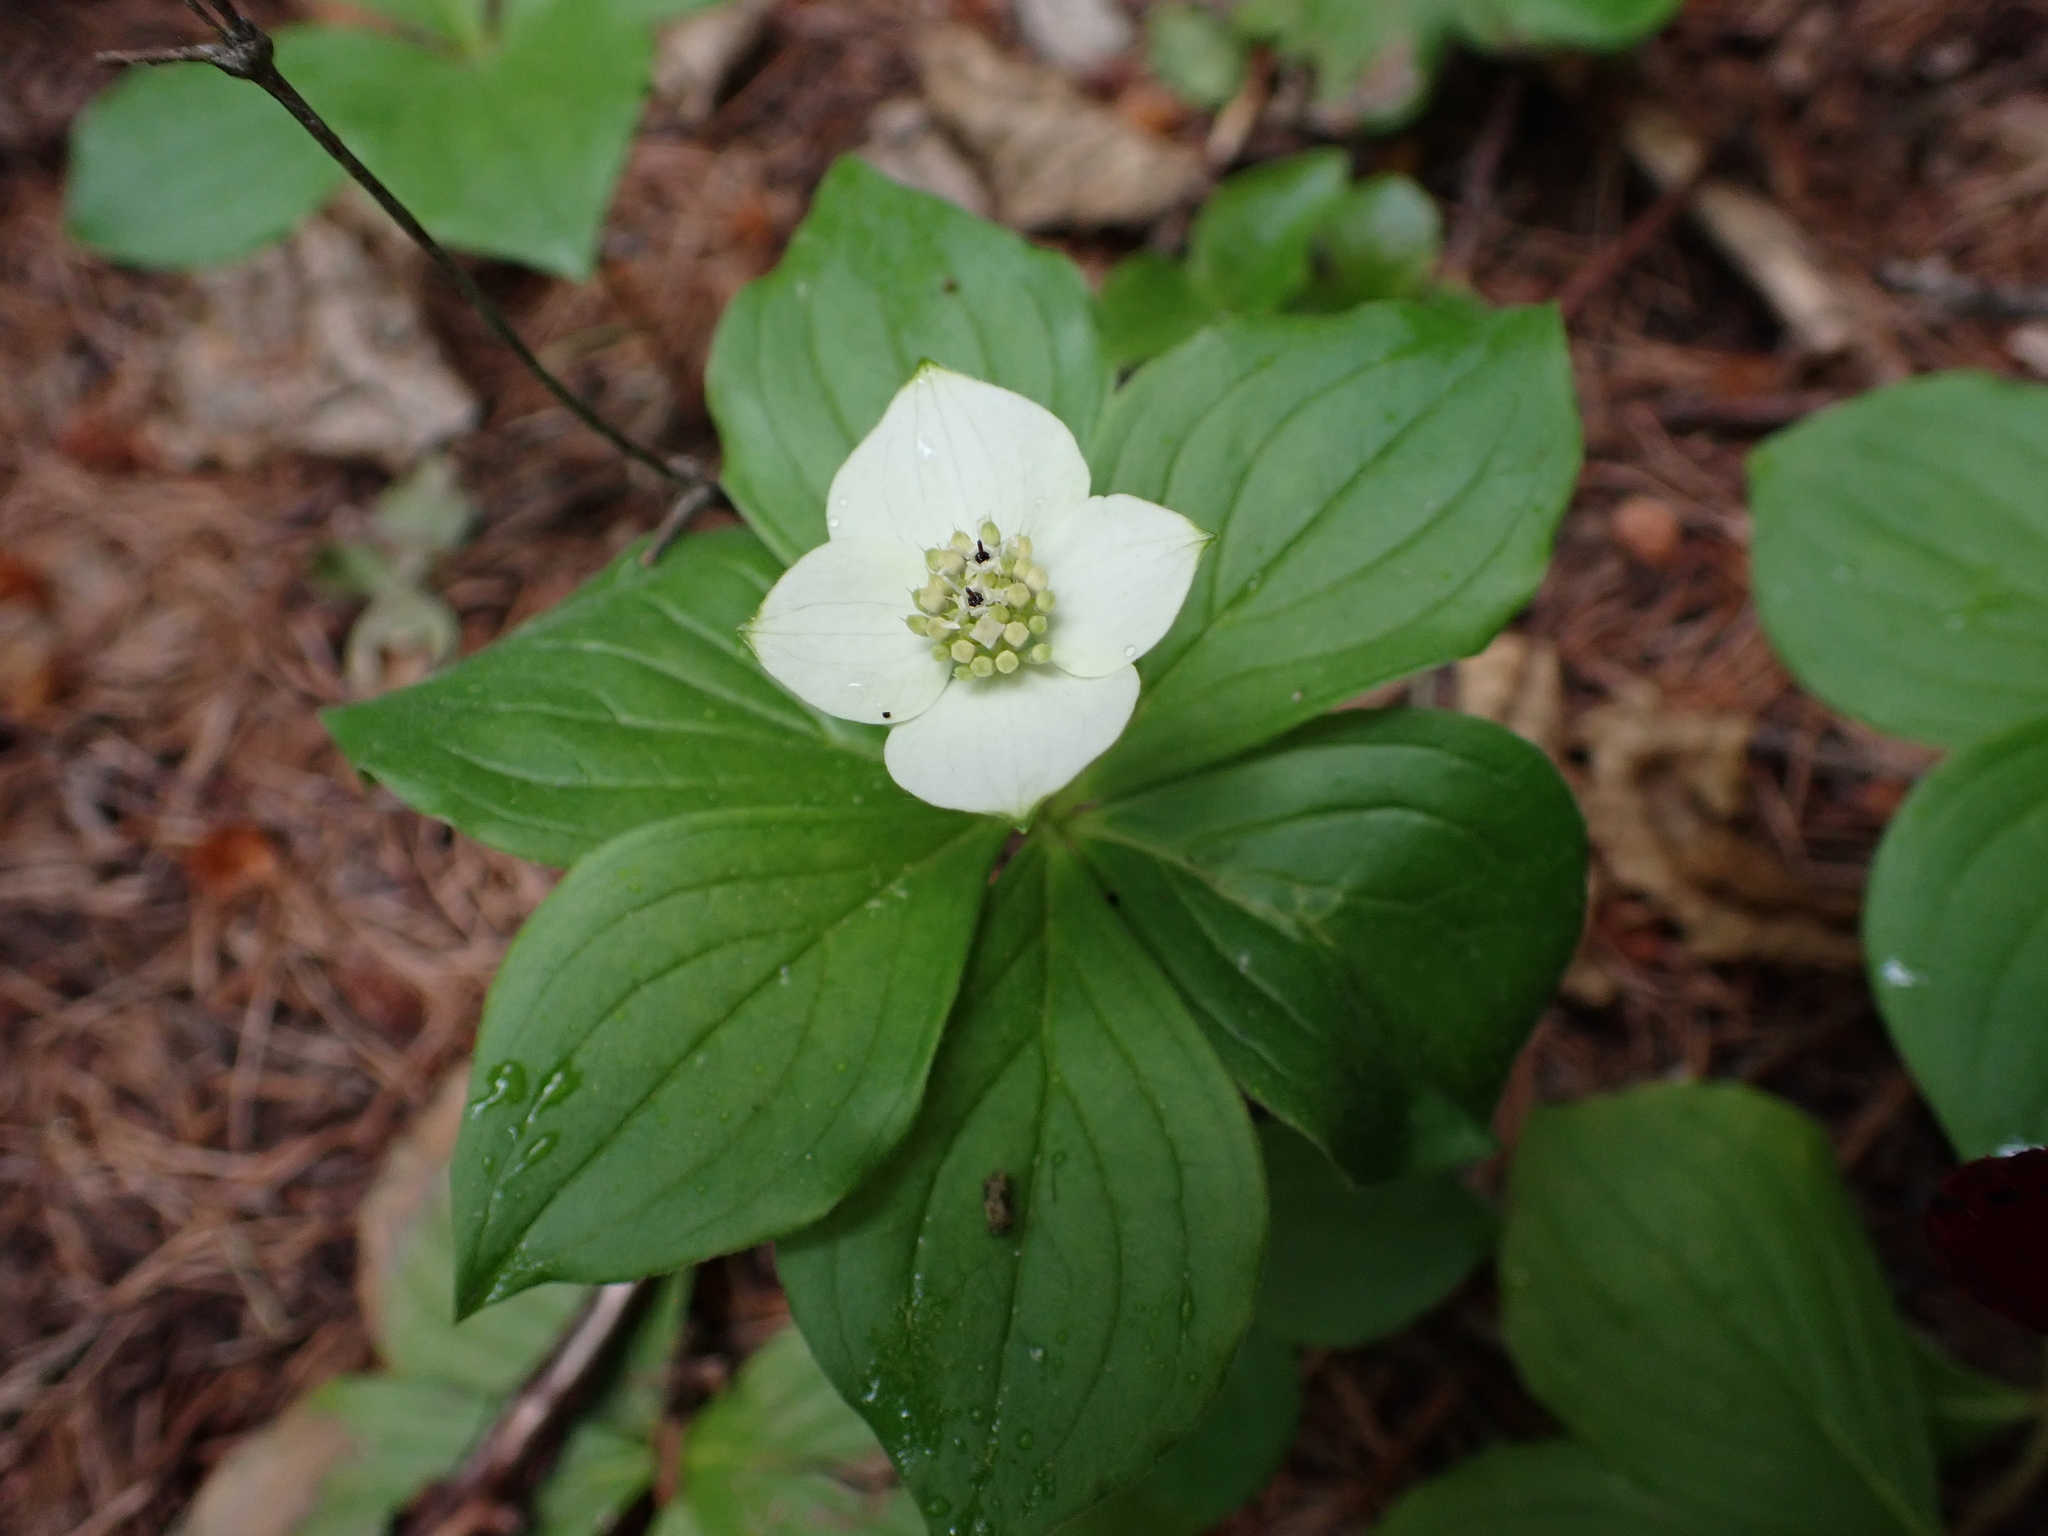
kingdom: Plantae
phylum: Tracheophyta
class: Magnoliopsida
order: Cornales
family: Cornaceae
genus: Cornus
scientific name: Cornus canadensis
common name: Creeping dogwood
